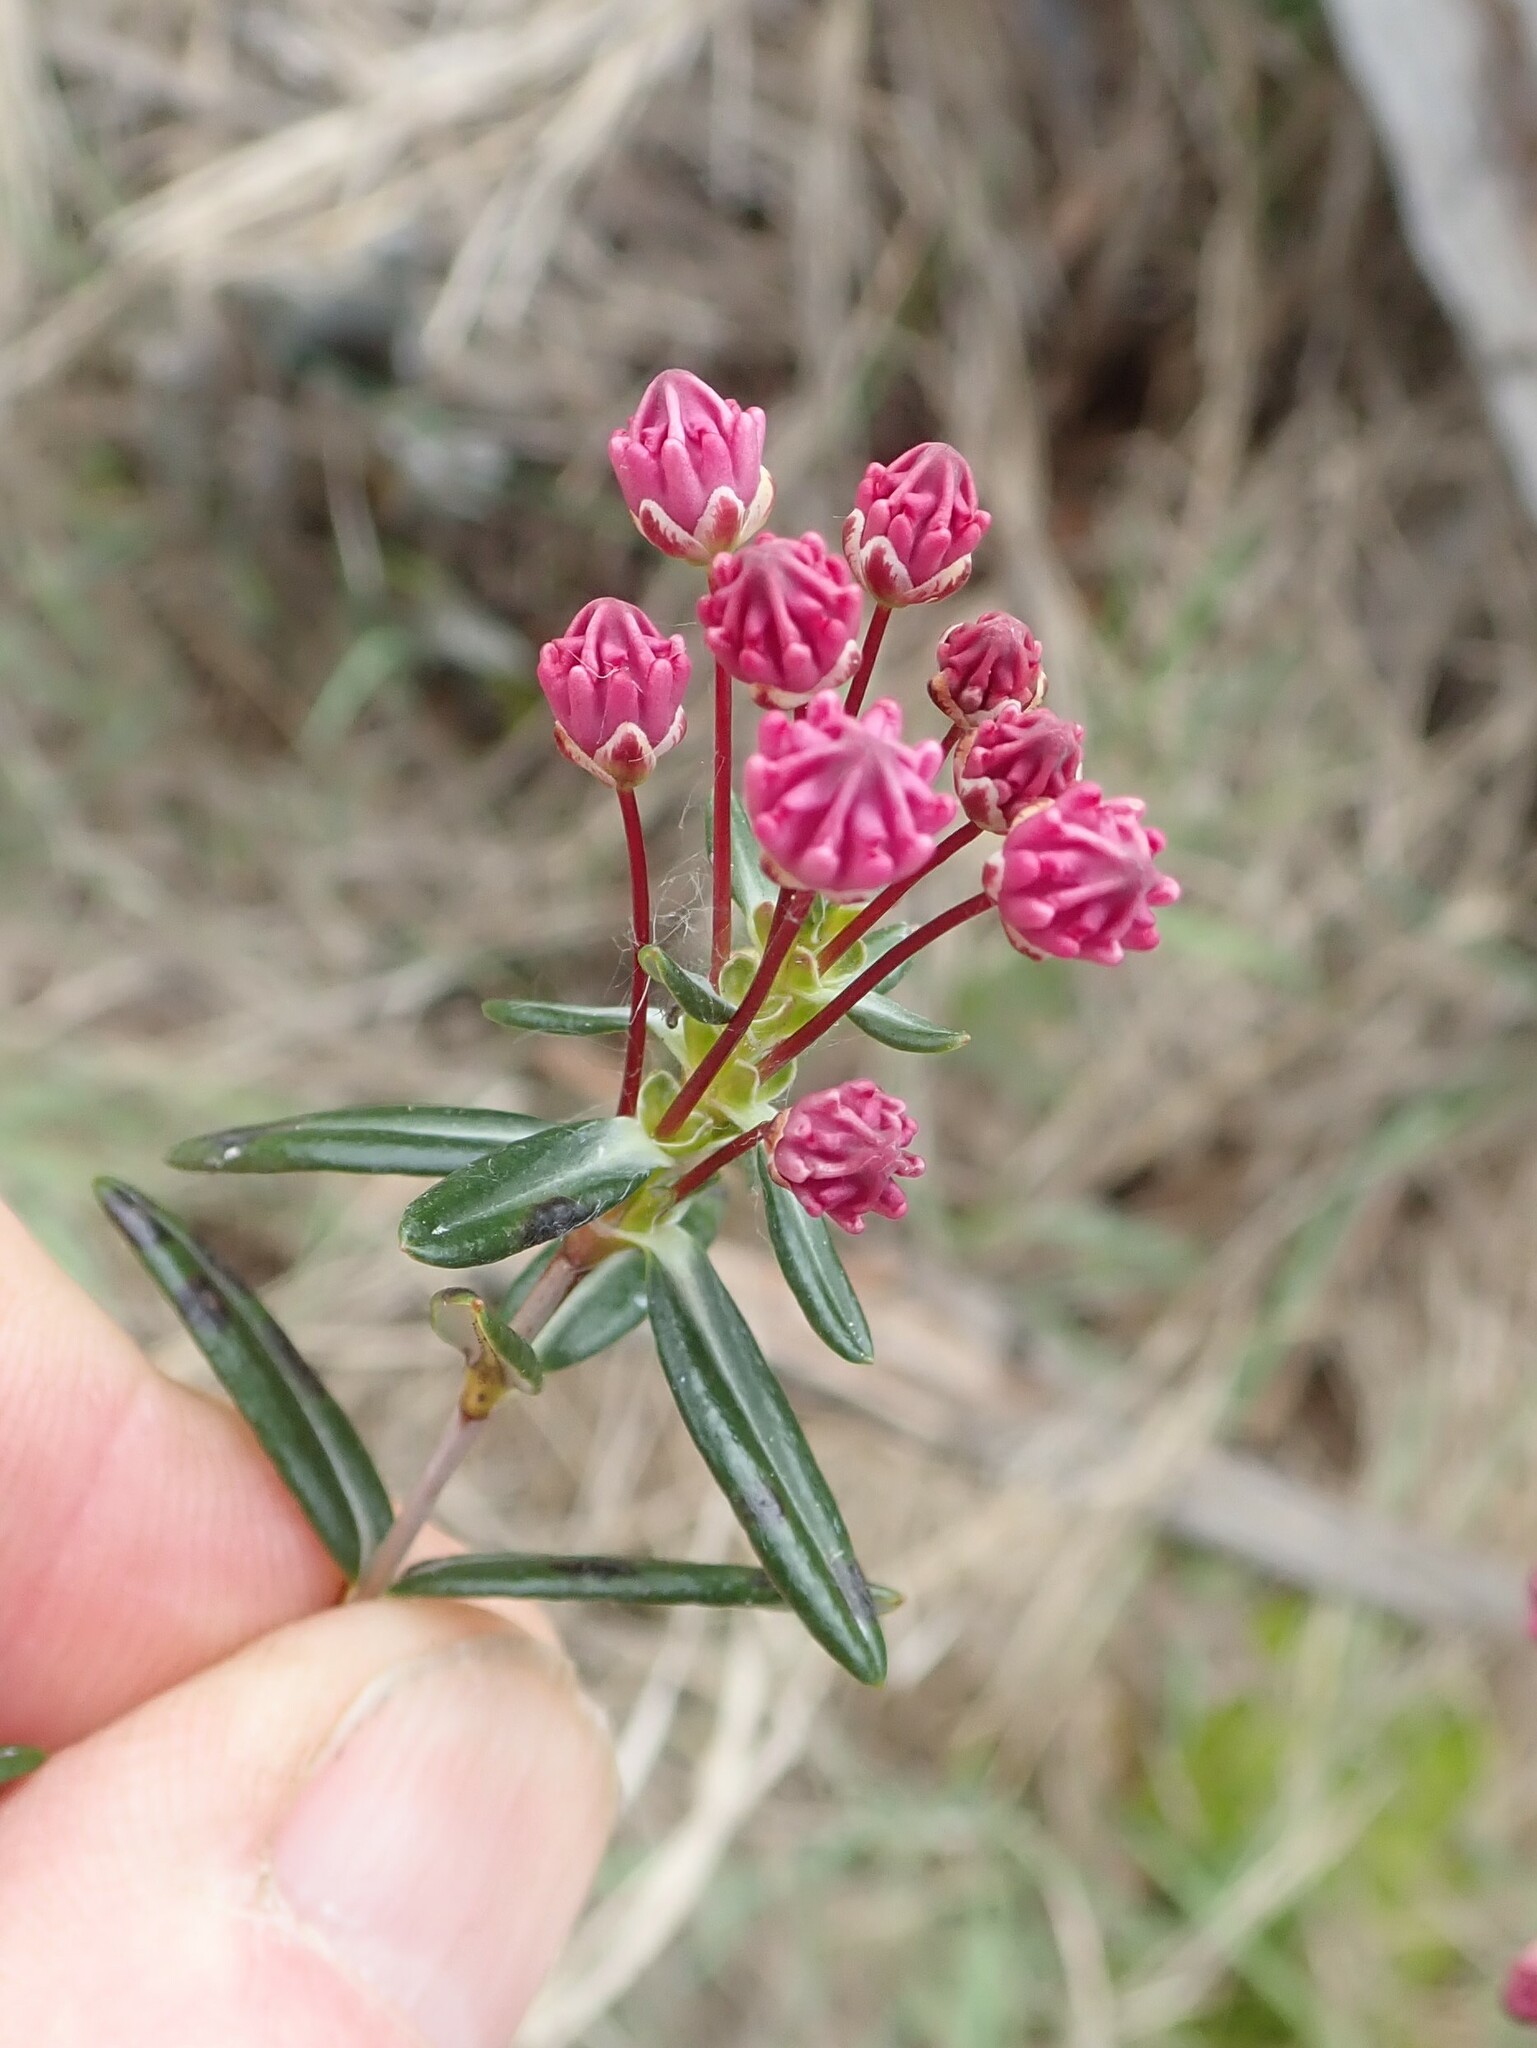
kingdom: Plantae
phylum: Tracheophyta
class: Magnoliopsida
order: Ericales
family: Ericaceae
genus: Kalmia
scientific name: Kalmia polifolia
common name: Bog-laurel
